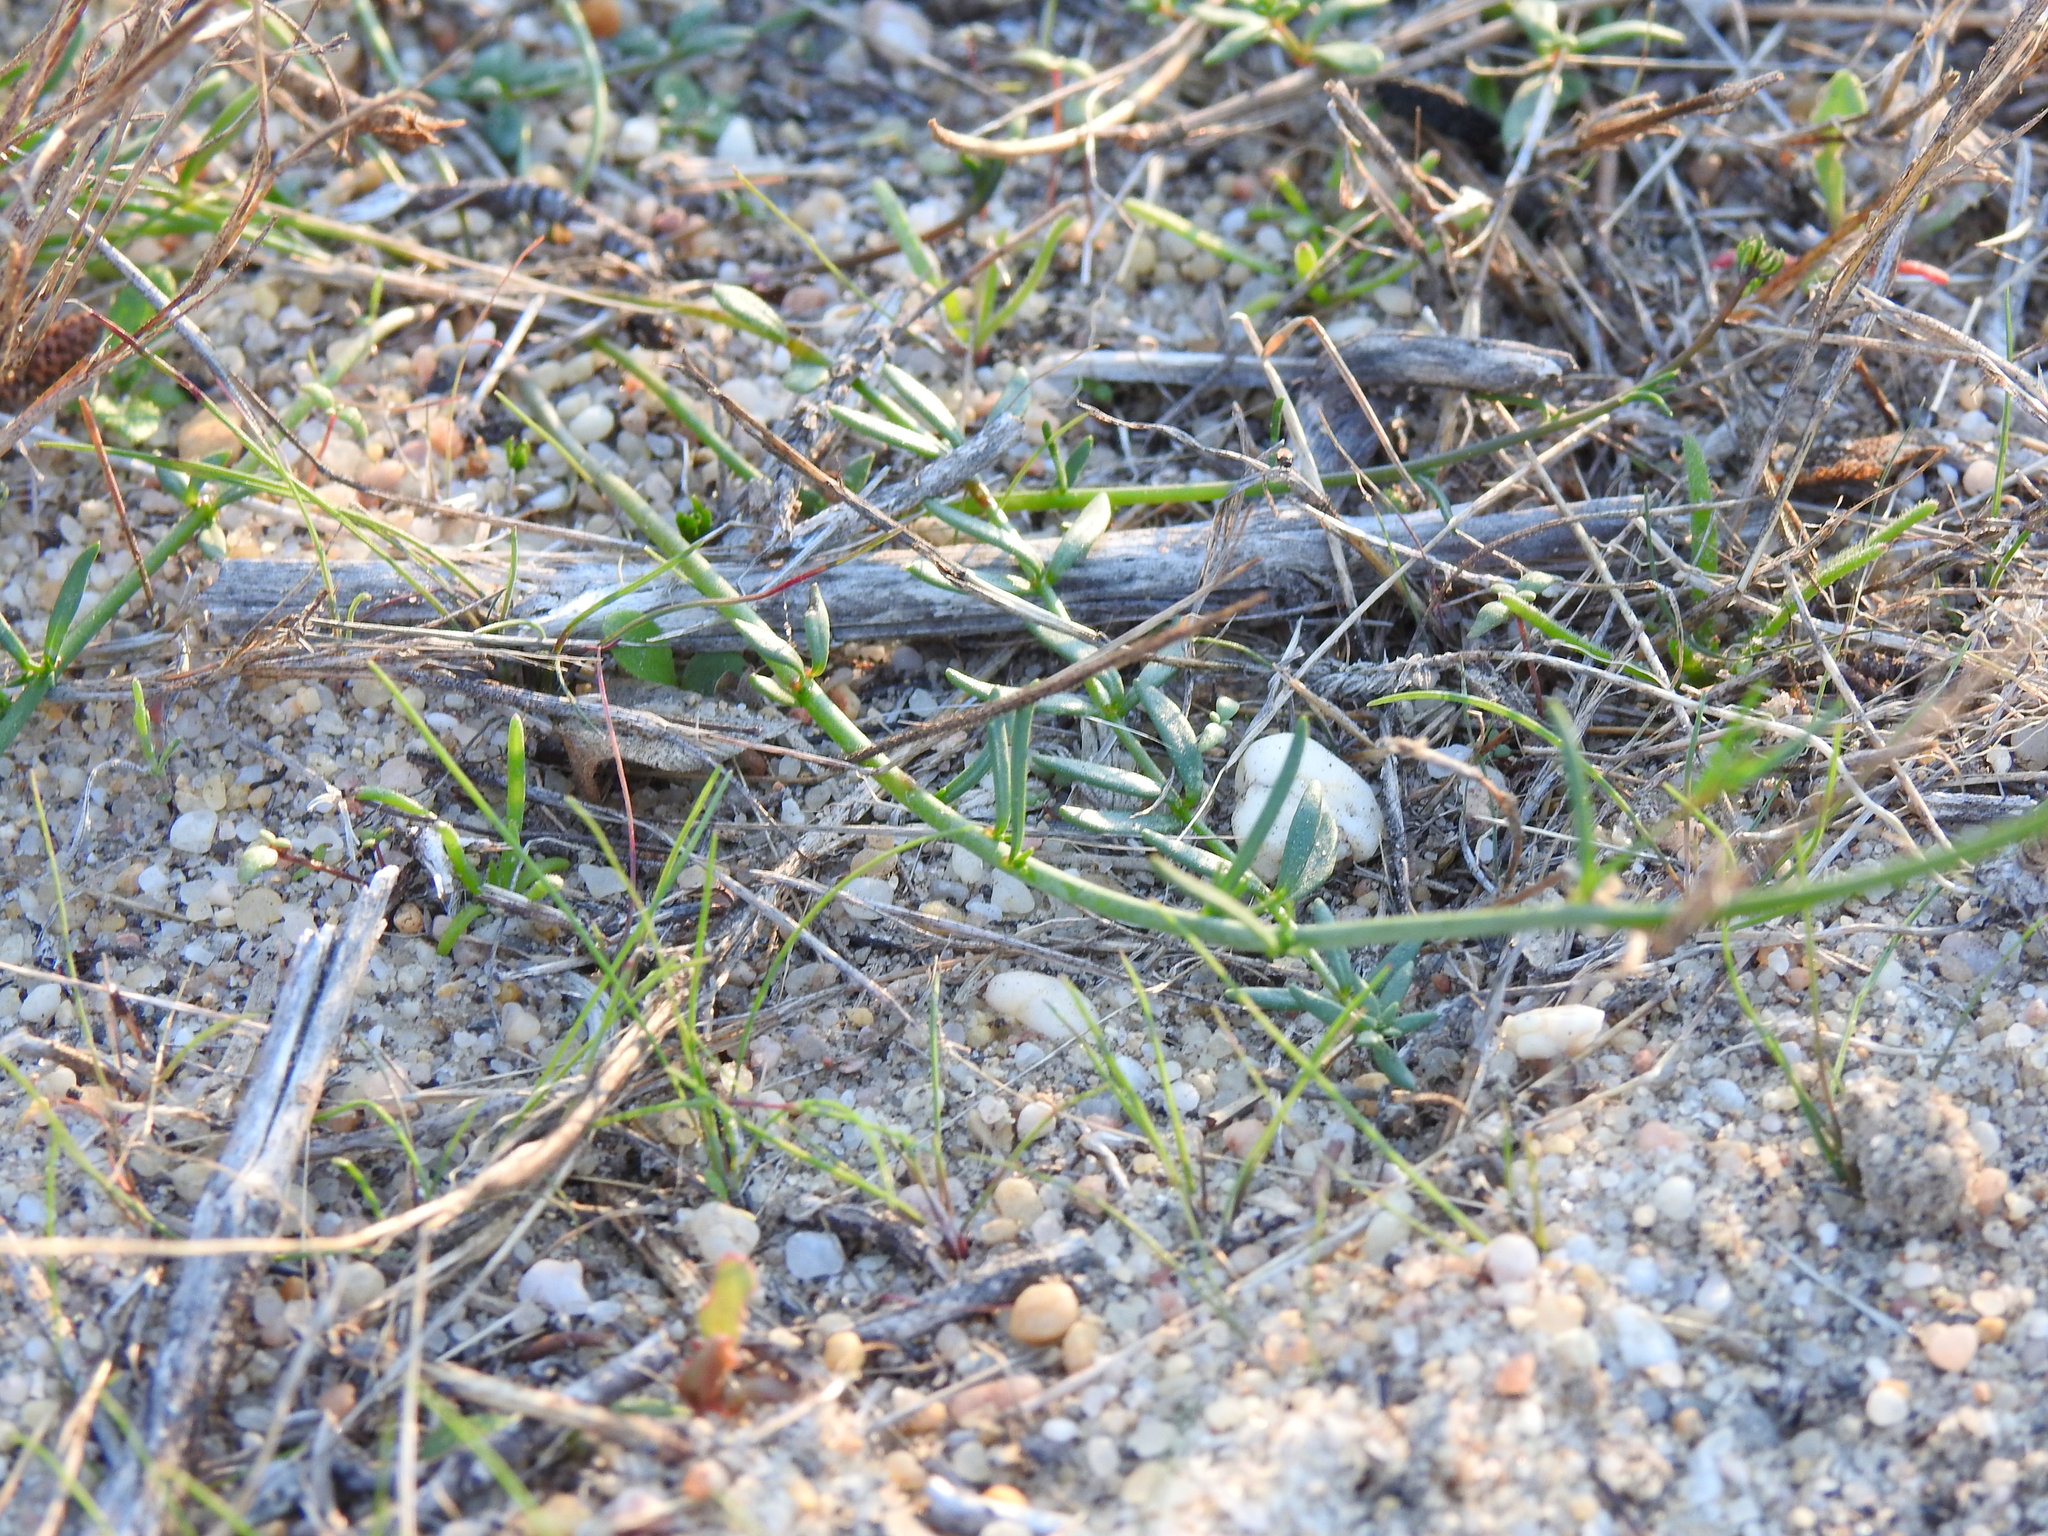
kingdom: Plantae
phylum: Tracheophyta
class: Magnoliopsida
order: Lamiales
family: Plantaginaceae
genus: Linaria
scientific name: Linaria spartea
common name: Ballast toadflax
